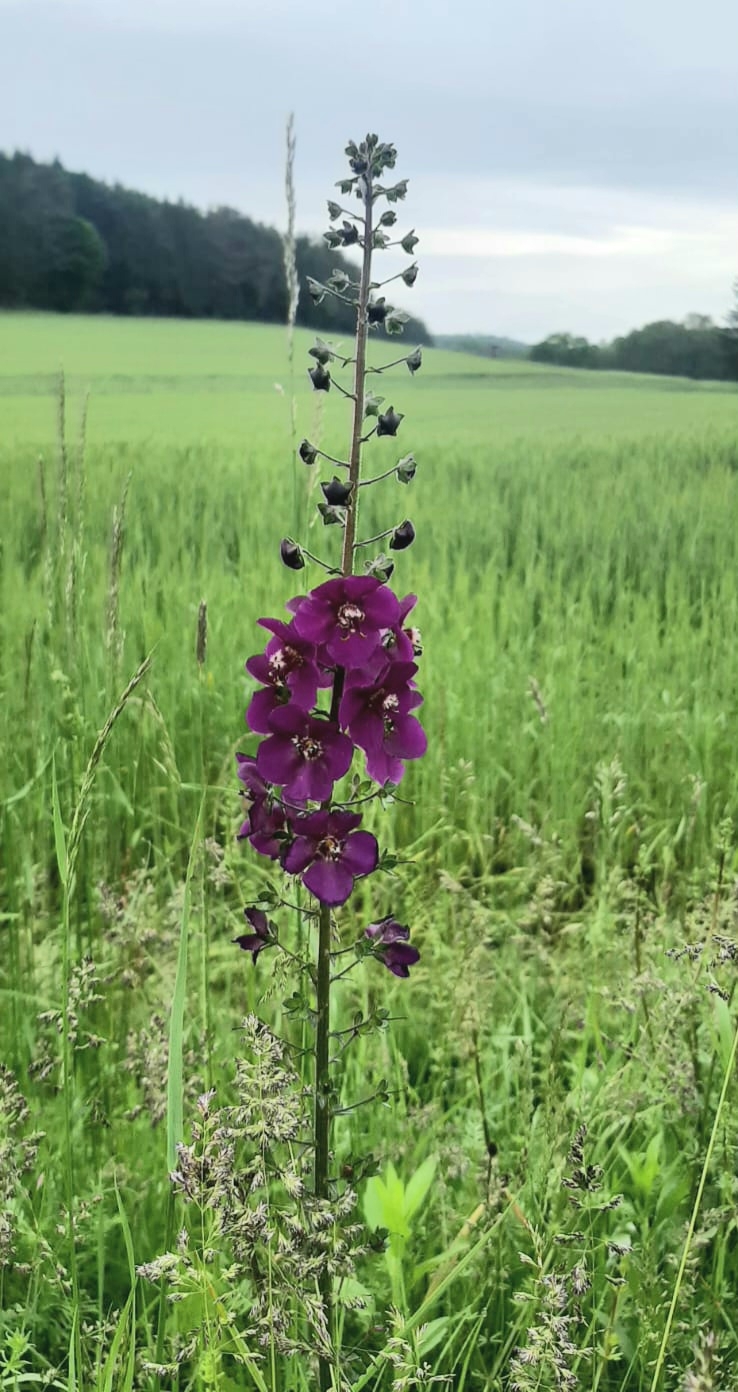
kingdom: Plantae
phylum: Tracheophyta
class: Magnoliopsida
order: Lamiales
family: Scrophulariaceae
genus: Verbascum
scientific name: Verbascum phoeniceum
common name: Purple mullein
